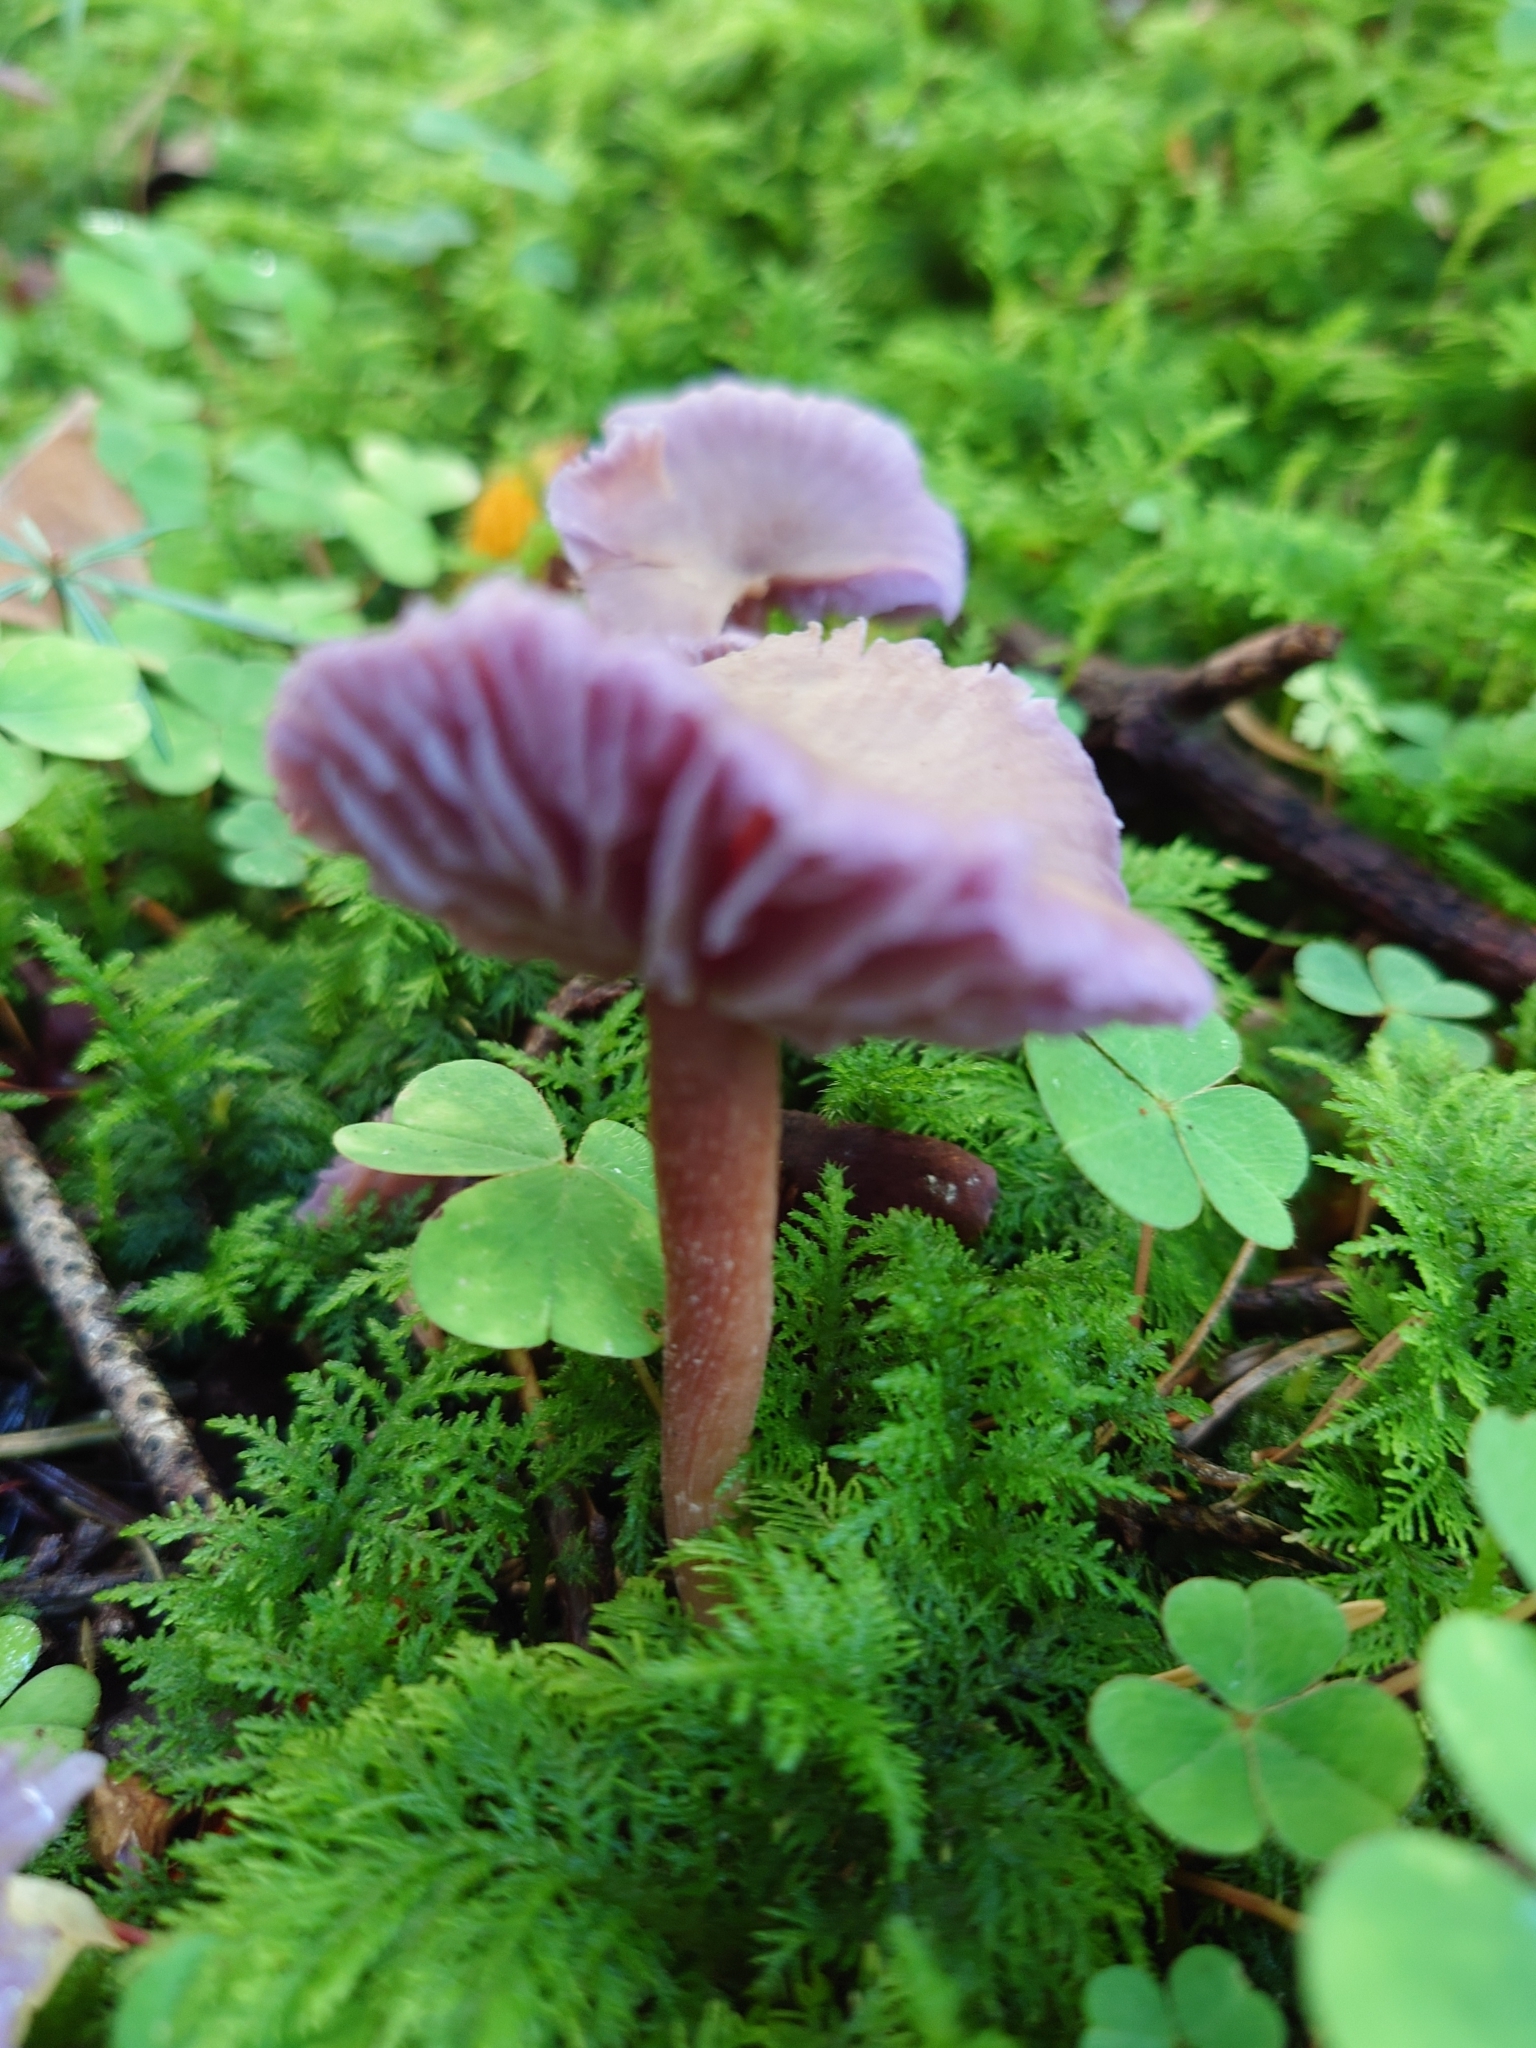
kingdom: Fungi
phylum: Basidiomycota
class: Agaricomycetes
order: Agaricales
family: Hydnangiaceae
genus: Laccaria
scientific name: Laccaria amethystina
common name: Amethyst deceiver
